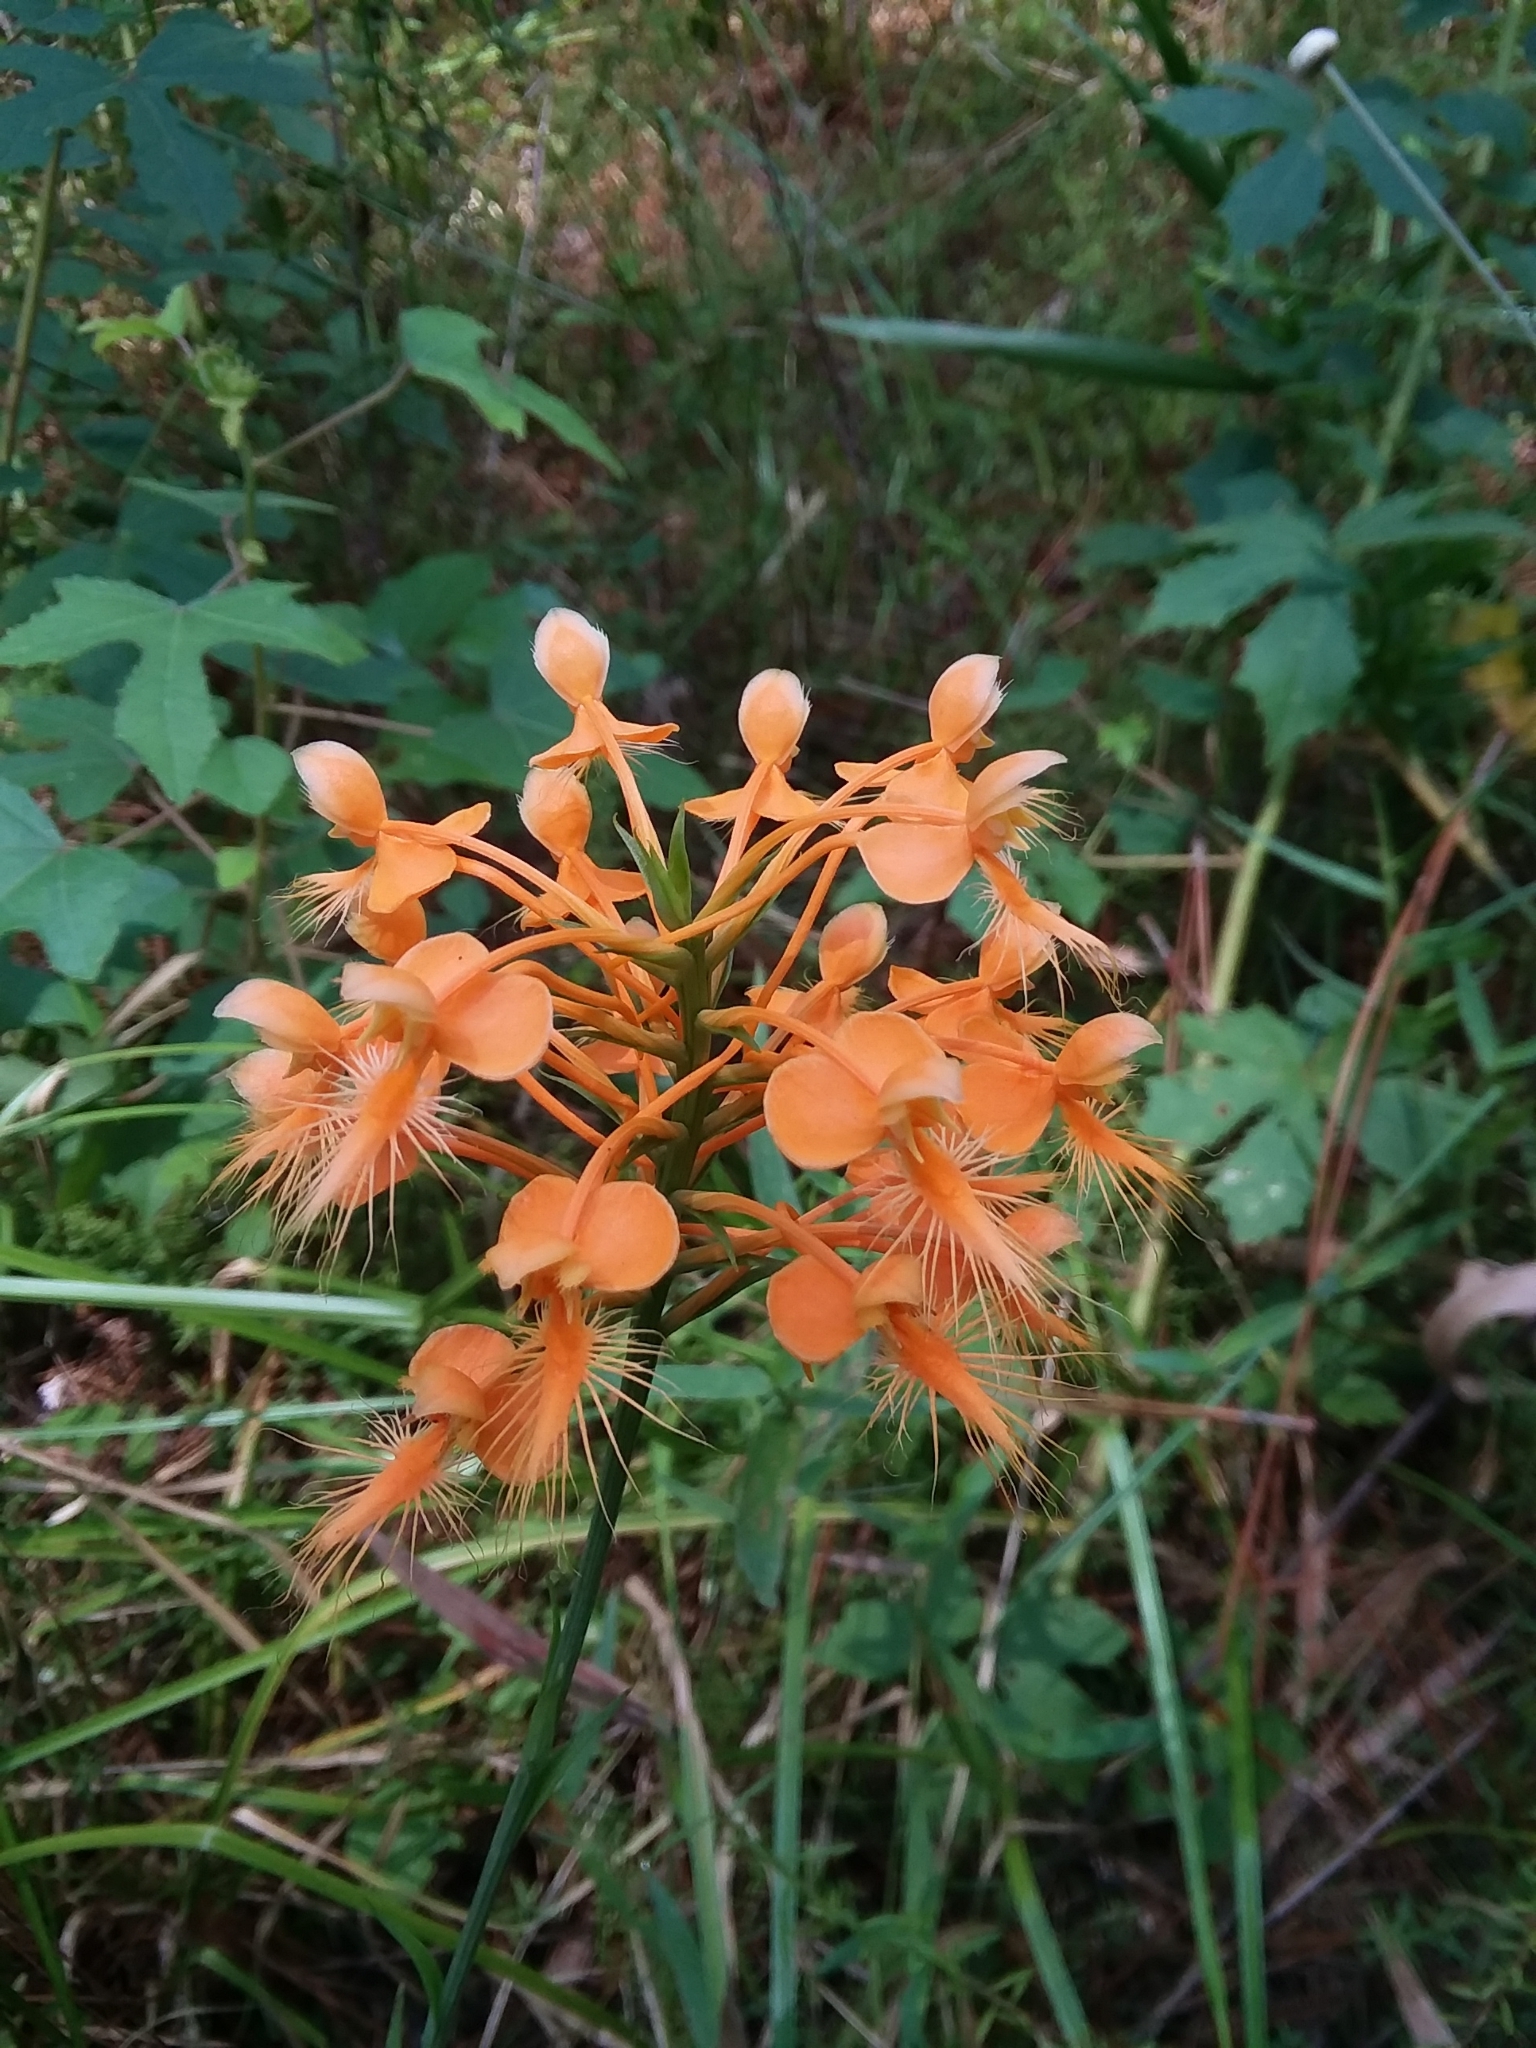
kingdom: Plantae
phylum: Tracheophyta
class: Liliopsida
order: Asparagales
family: Orchidaceae
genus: Platanthera
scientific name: Platanthera ciliaris
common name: Yellow fringed orchid
